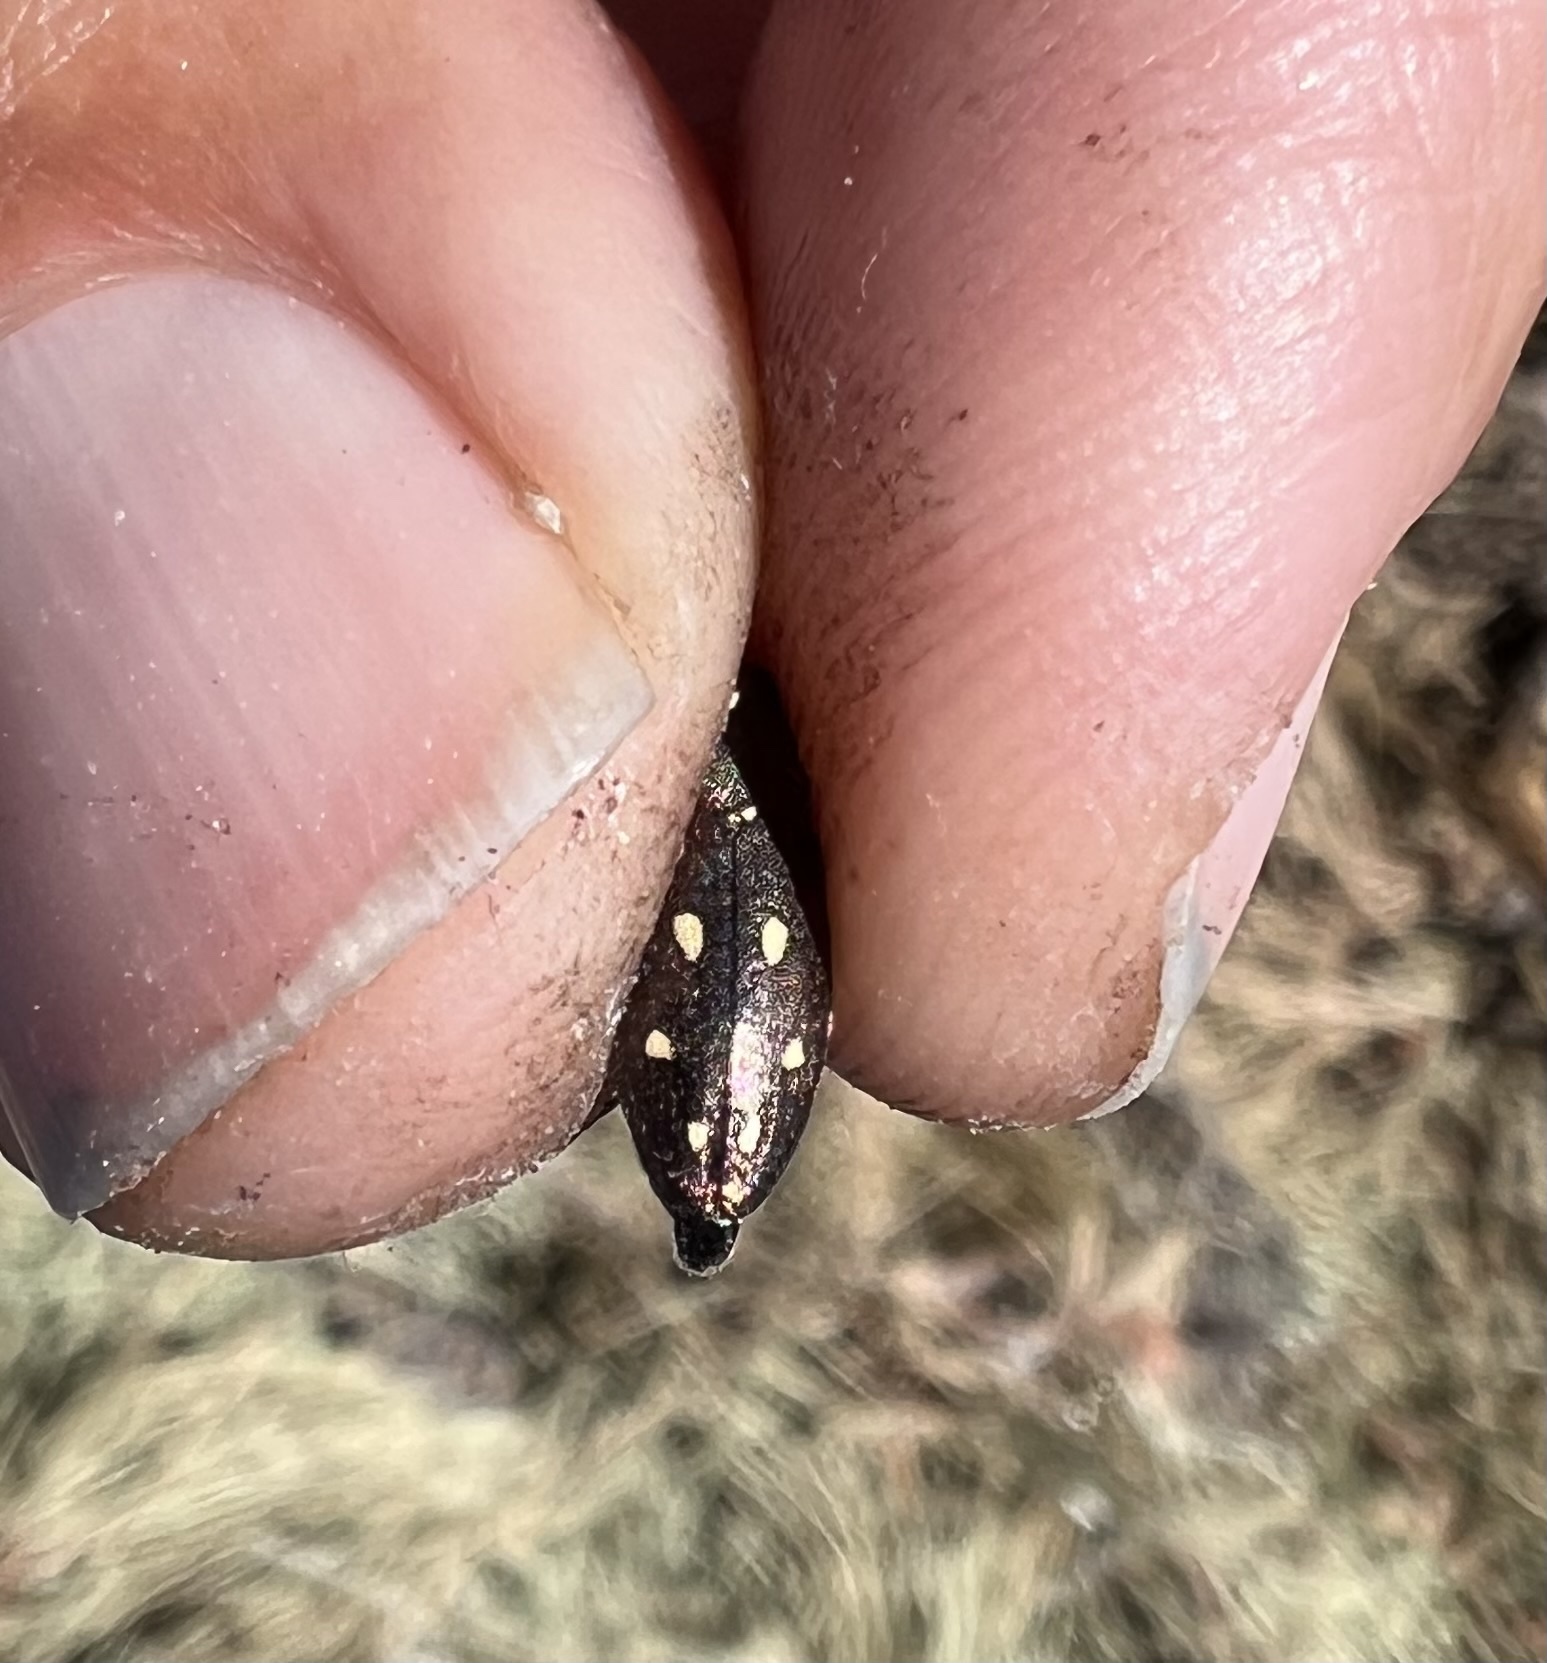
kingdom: Animalia
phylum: Arthropoda
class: Insecta
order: Coleoptera
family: Buprestidae
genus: Phaenops
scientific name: Phaenops californica
